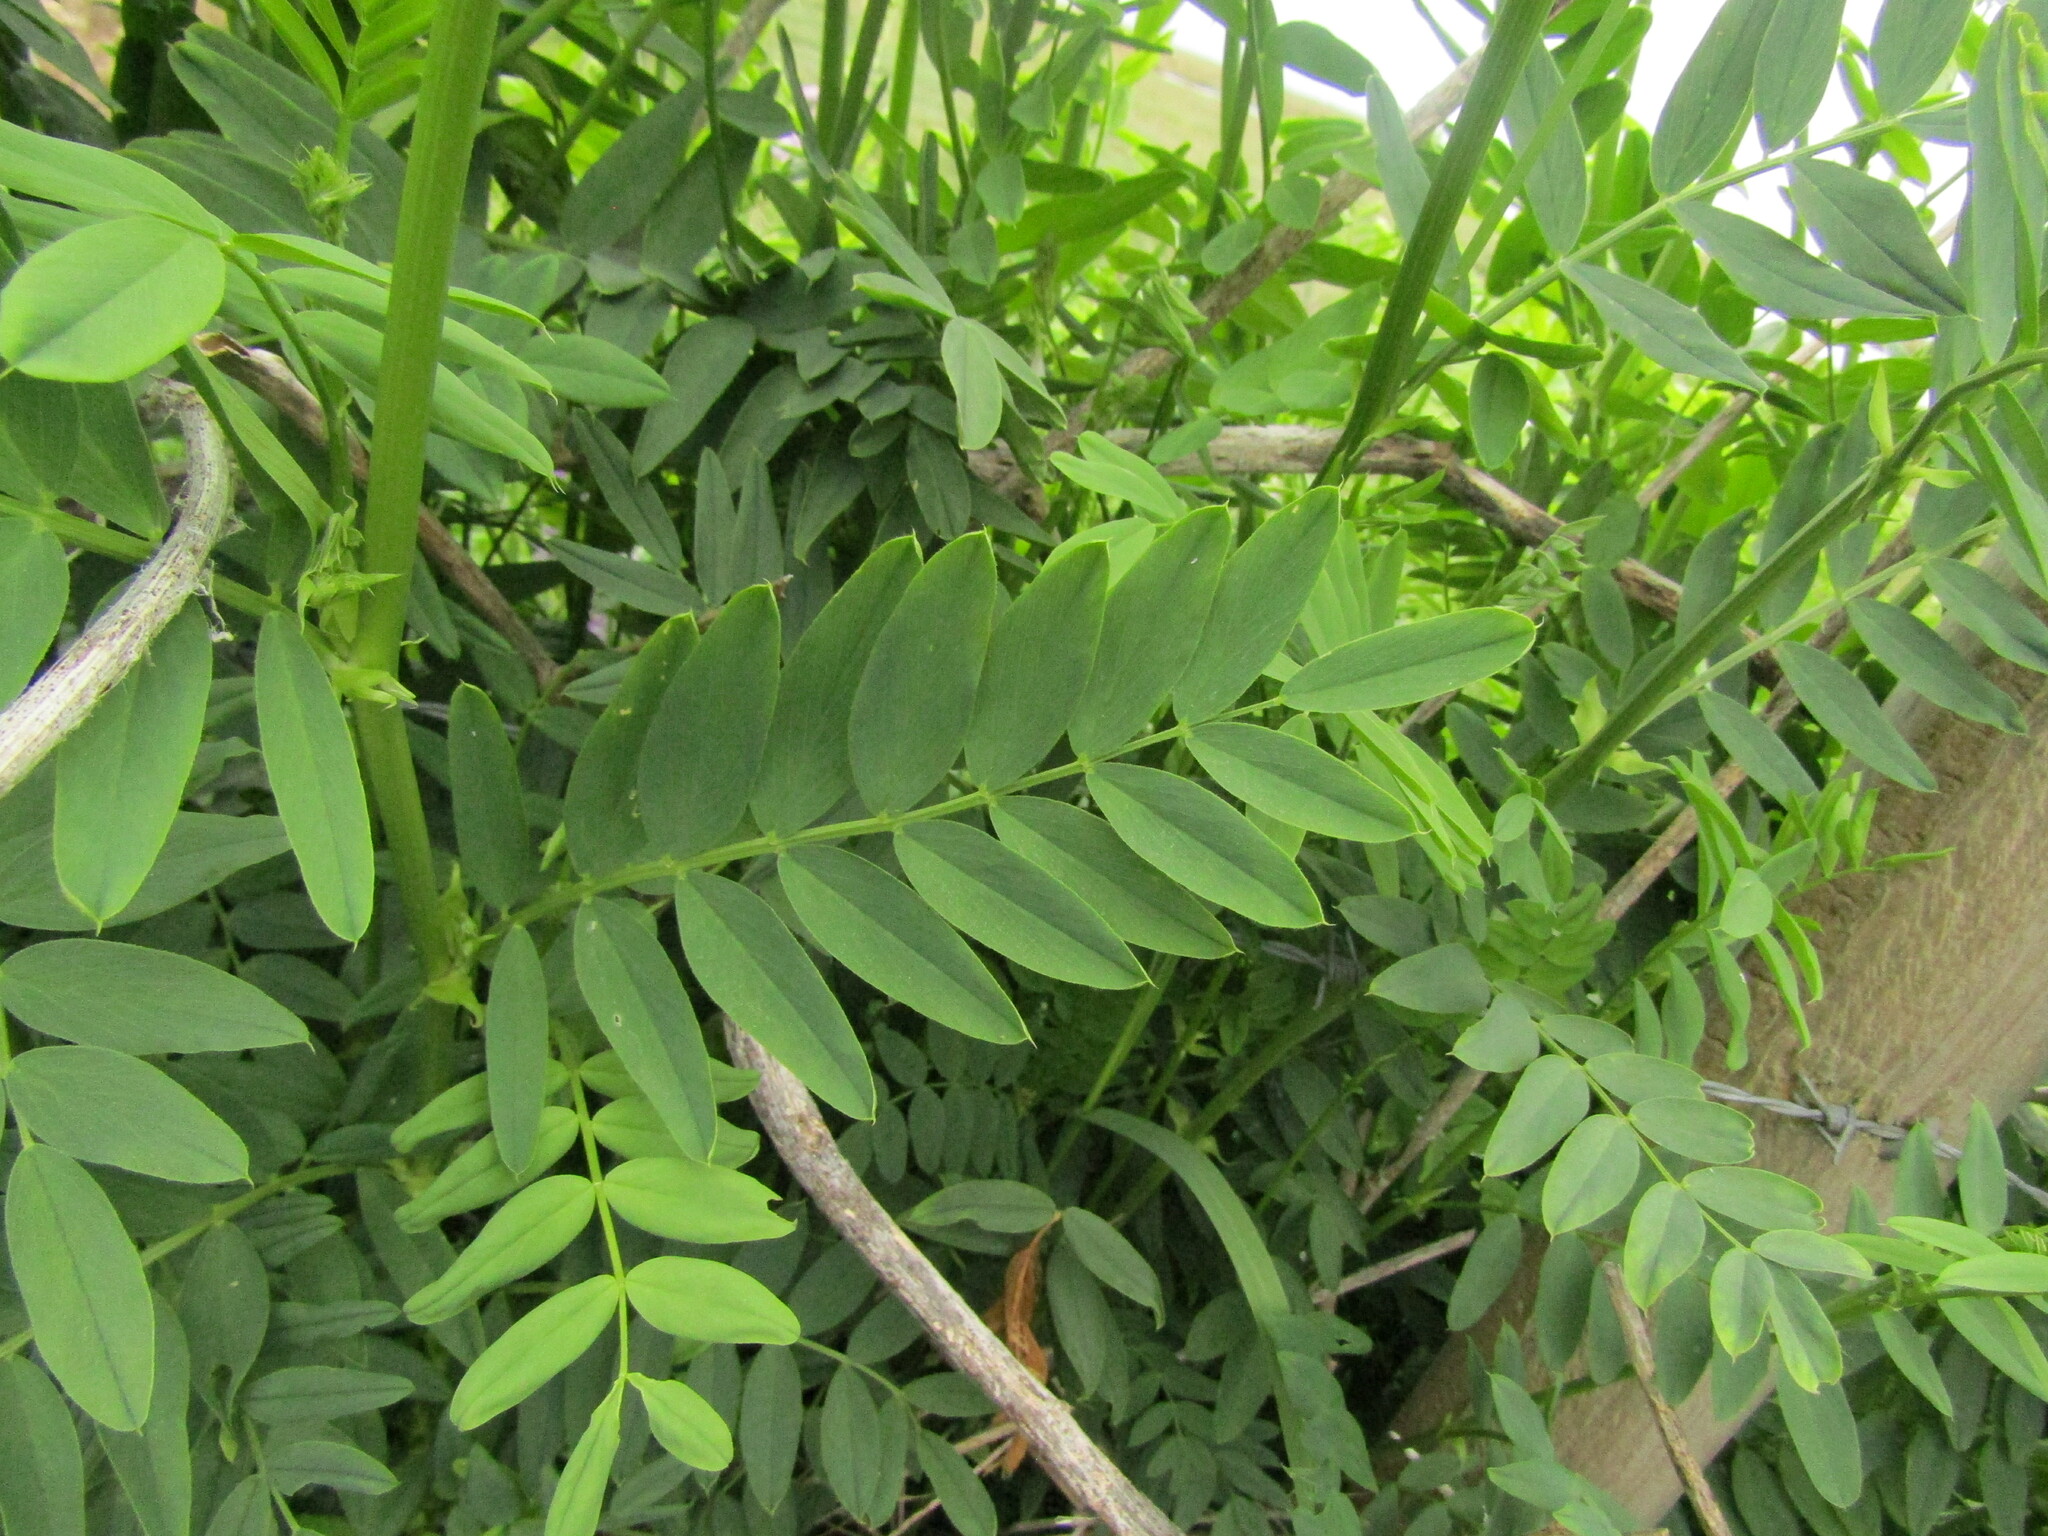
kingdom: Plantae
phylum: Tracheophyta
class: Magnoliopsida
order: Fabales
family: Fabaceae
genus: Galega
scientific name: Galega officinalis
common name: Goat's-rue
